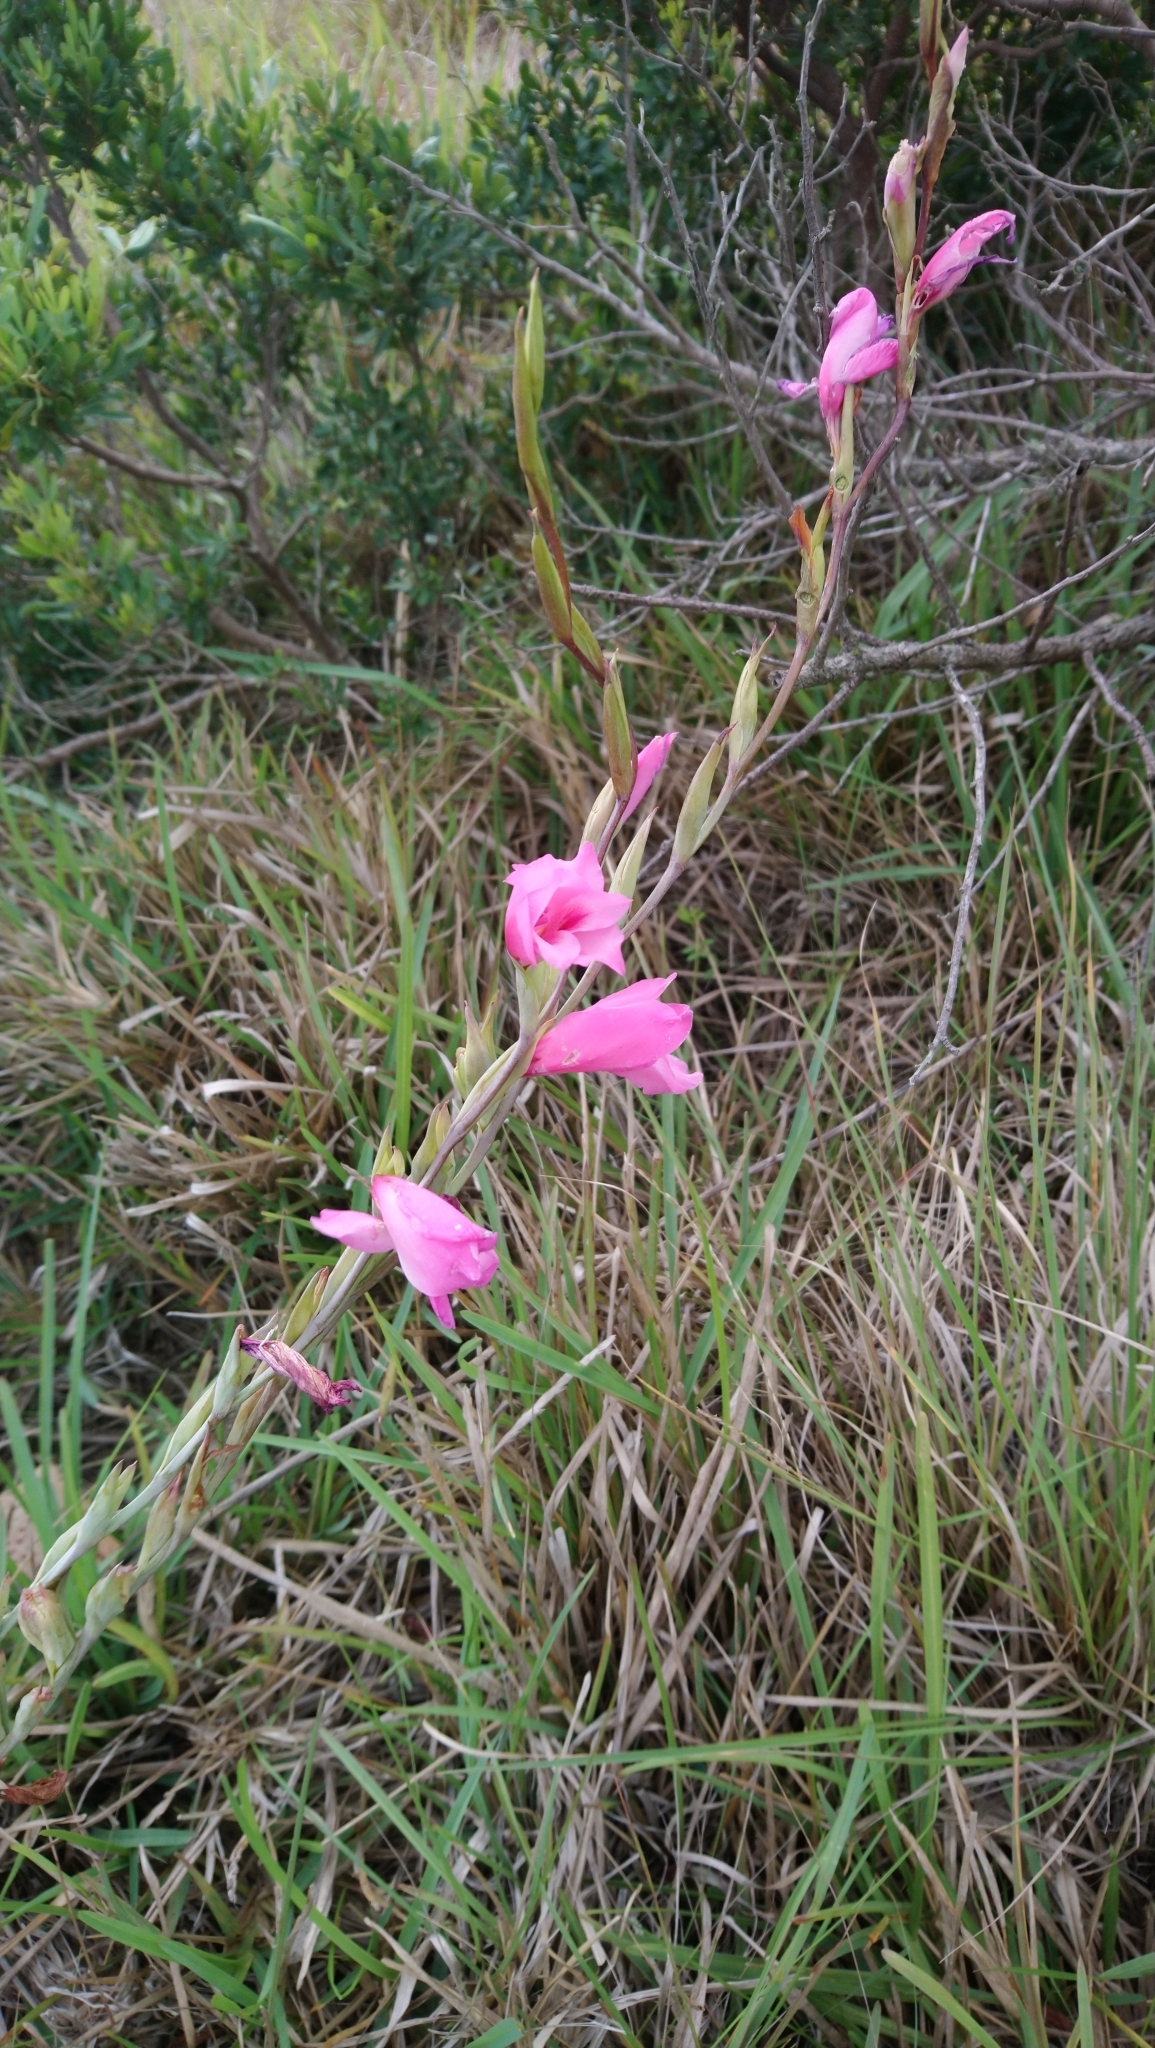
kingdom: Plantae
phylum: Tracheophyta
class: Liliopsida
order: Asparagales
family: Iridaceae
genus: Gladiolus
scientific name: Gladiolus ochroleucus
